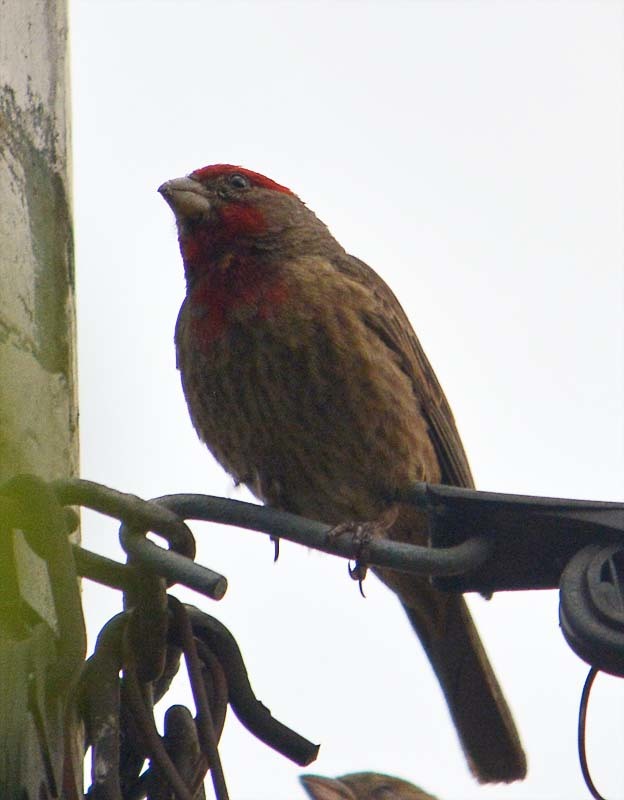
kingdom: Animalia
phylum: Chordata
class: Aves
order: Passeriformes
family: Fringillidae
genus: Haemorhous
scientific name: Haemorhous mexicanus
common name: House finch
